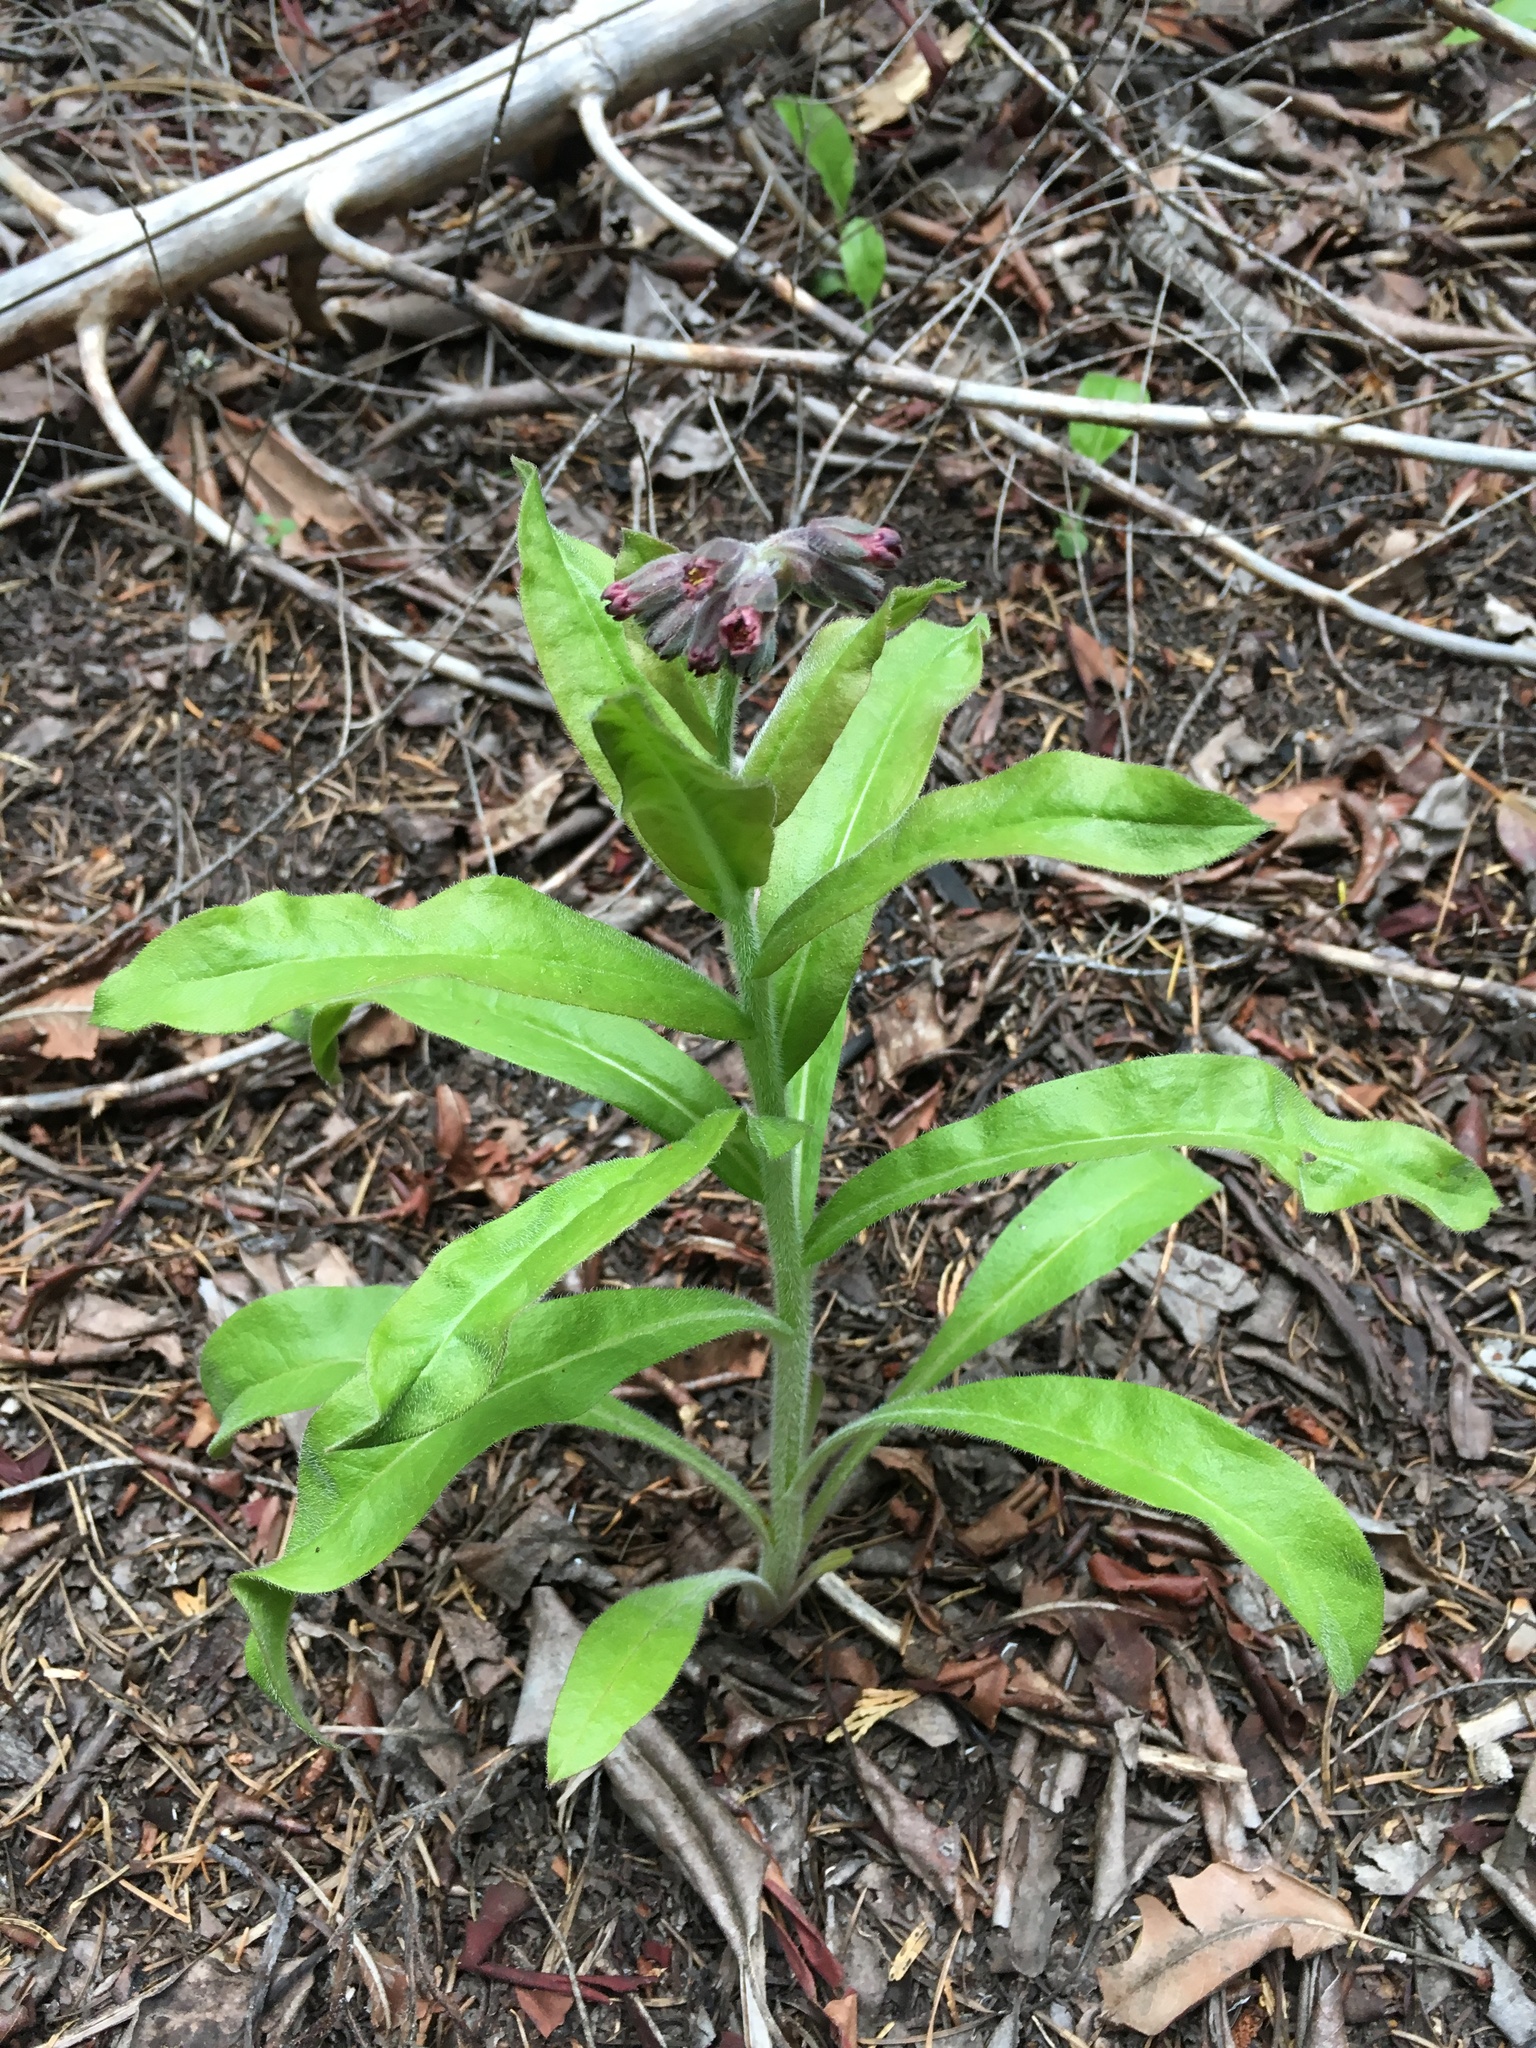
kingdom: Plantae
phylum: Tracheophyta
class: Magnoliopsida
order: Boraginales
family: Boraginaceae
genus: Andersonglossum
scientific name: Andersonglossum occidentale
